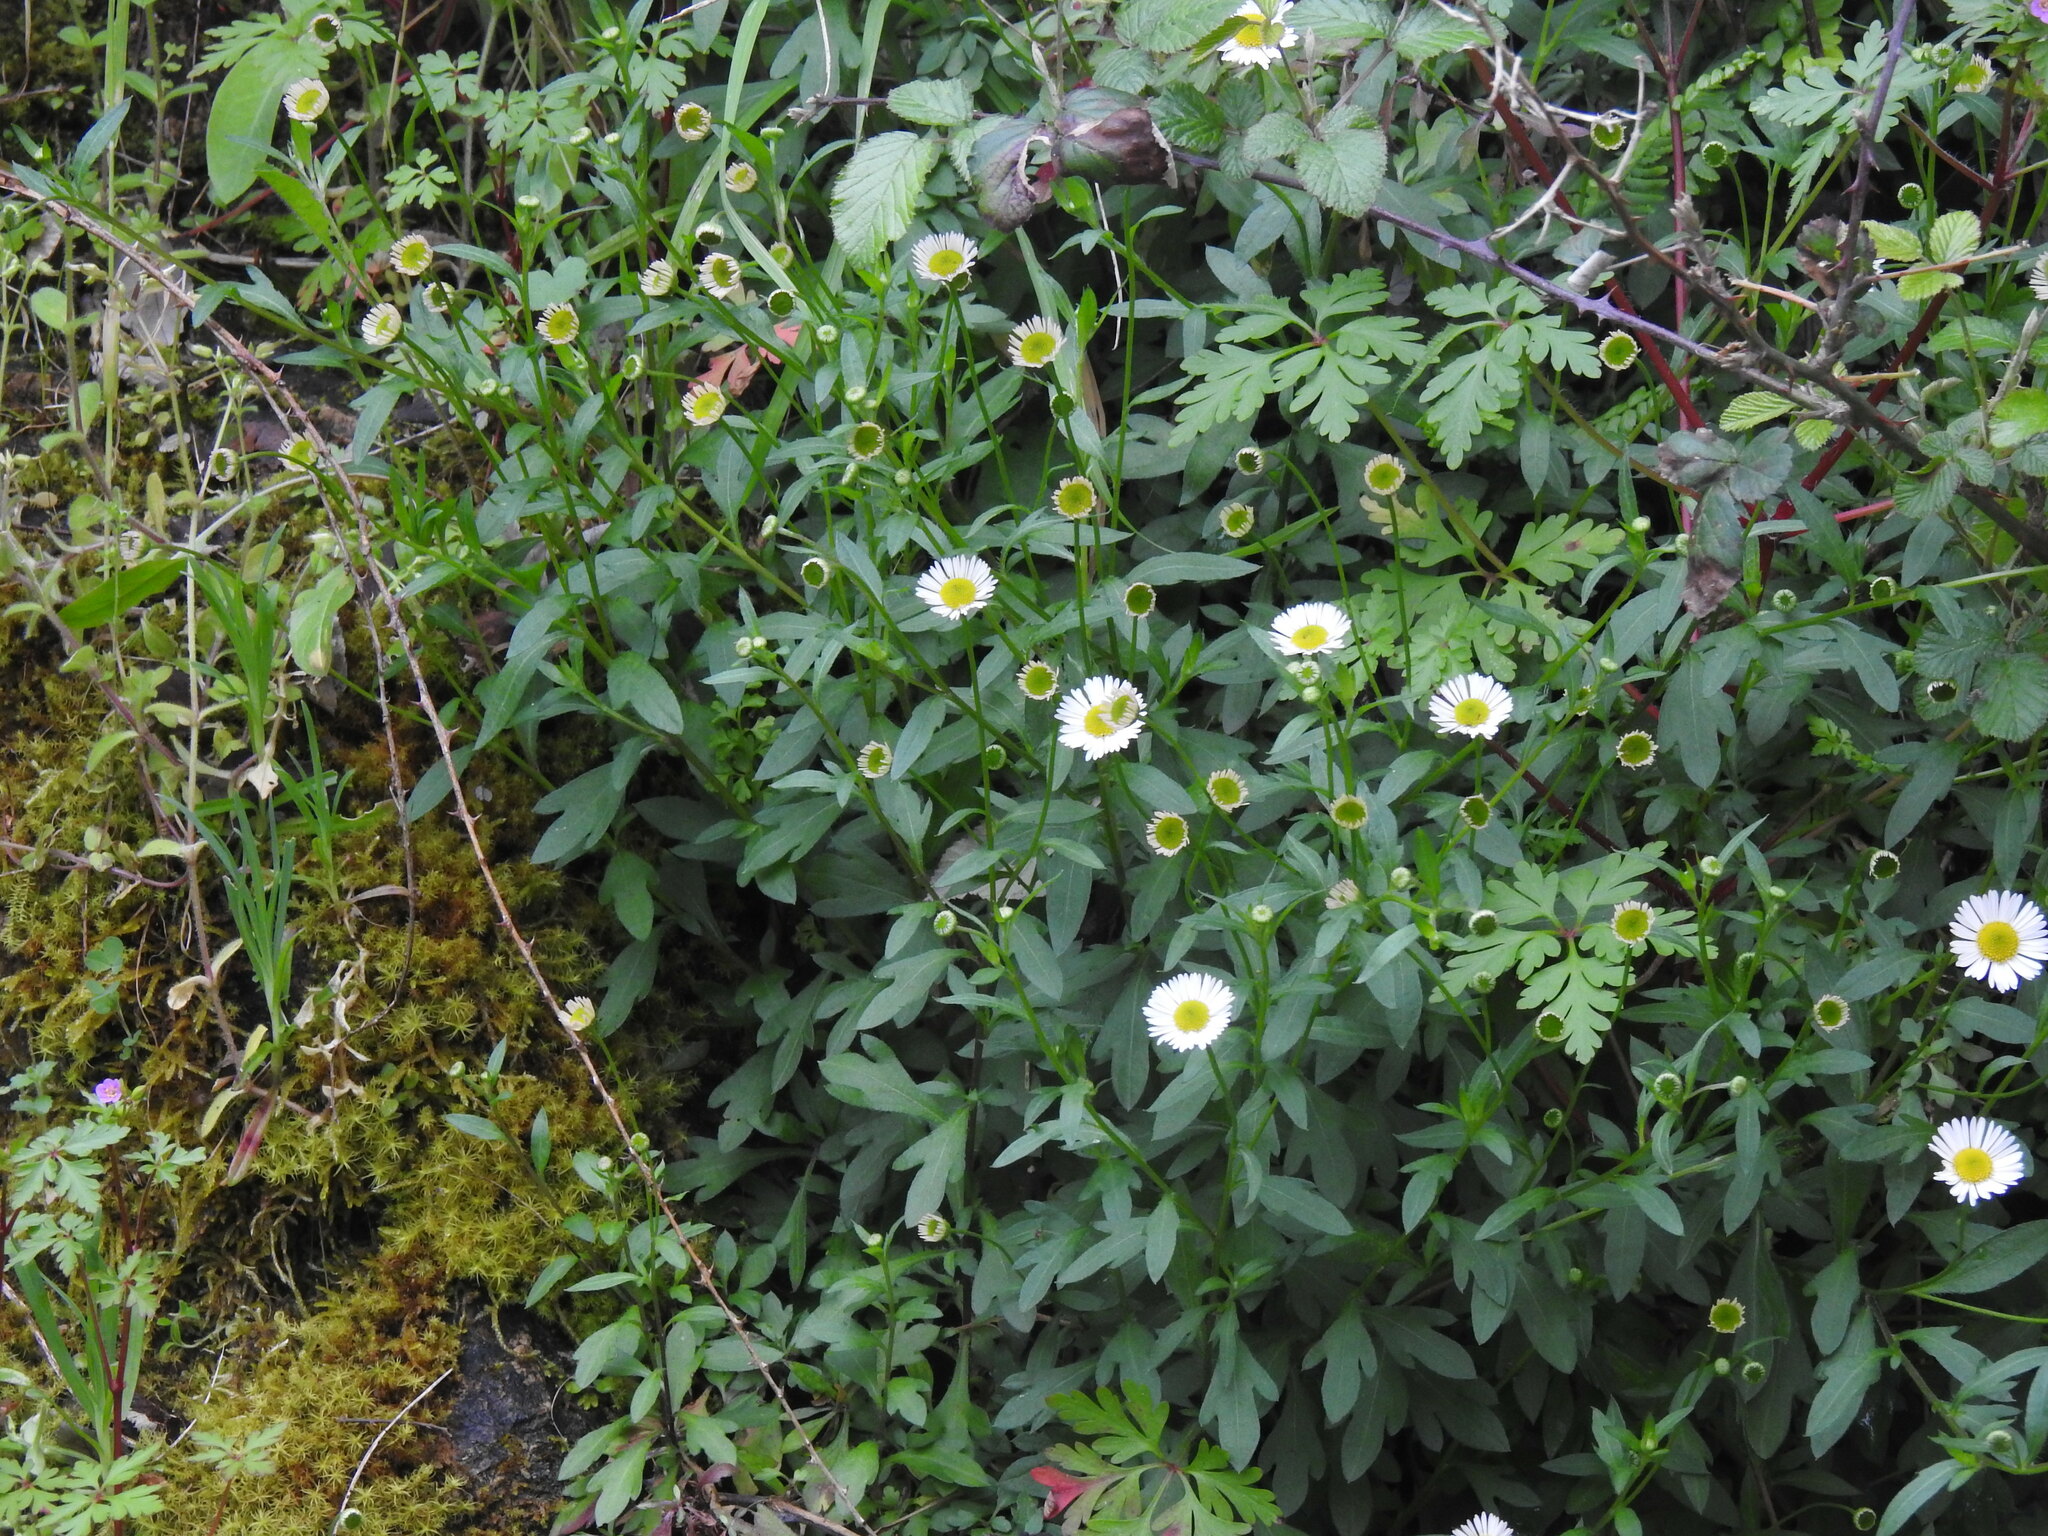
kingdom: Plantae
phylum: Tracheophyta
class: Magnoliopsida
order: Asterales
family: Asteraceae
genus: Erigeron
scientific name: Erigeron karvinskianus
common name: Mexican fleabane
